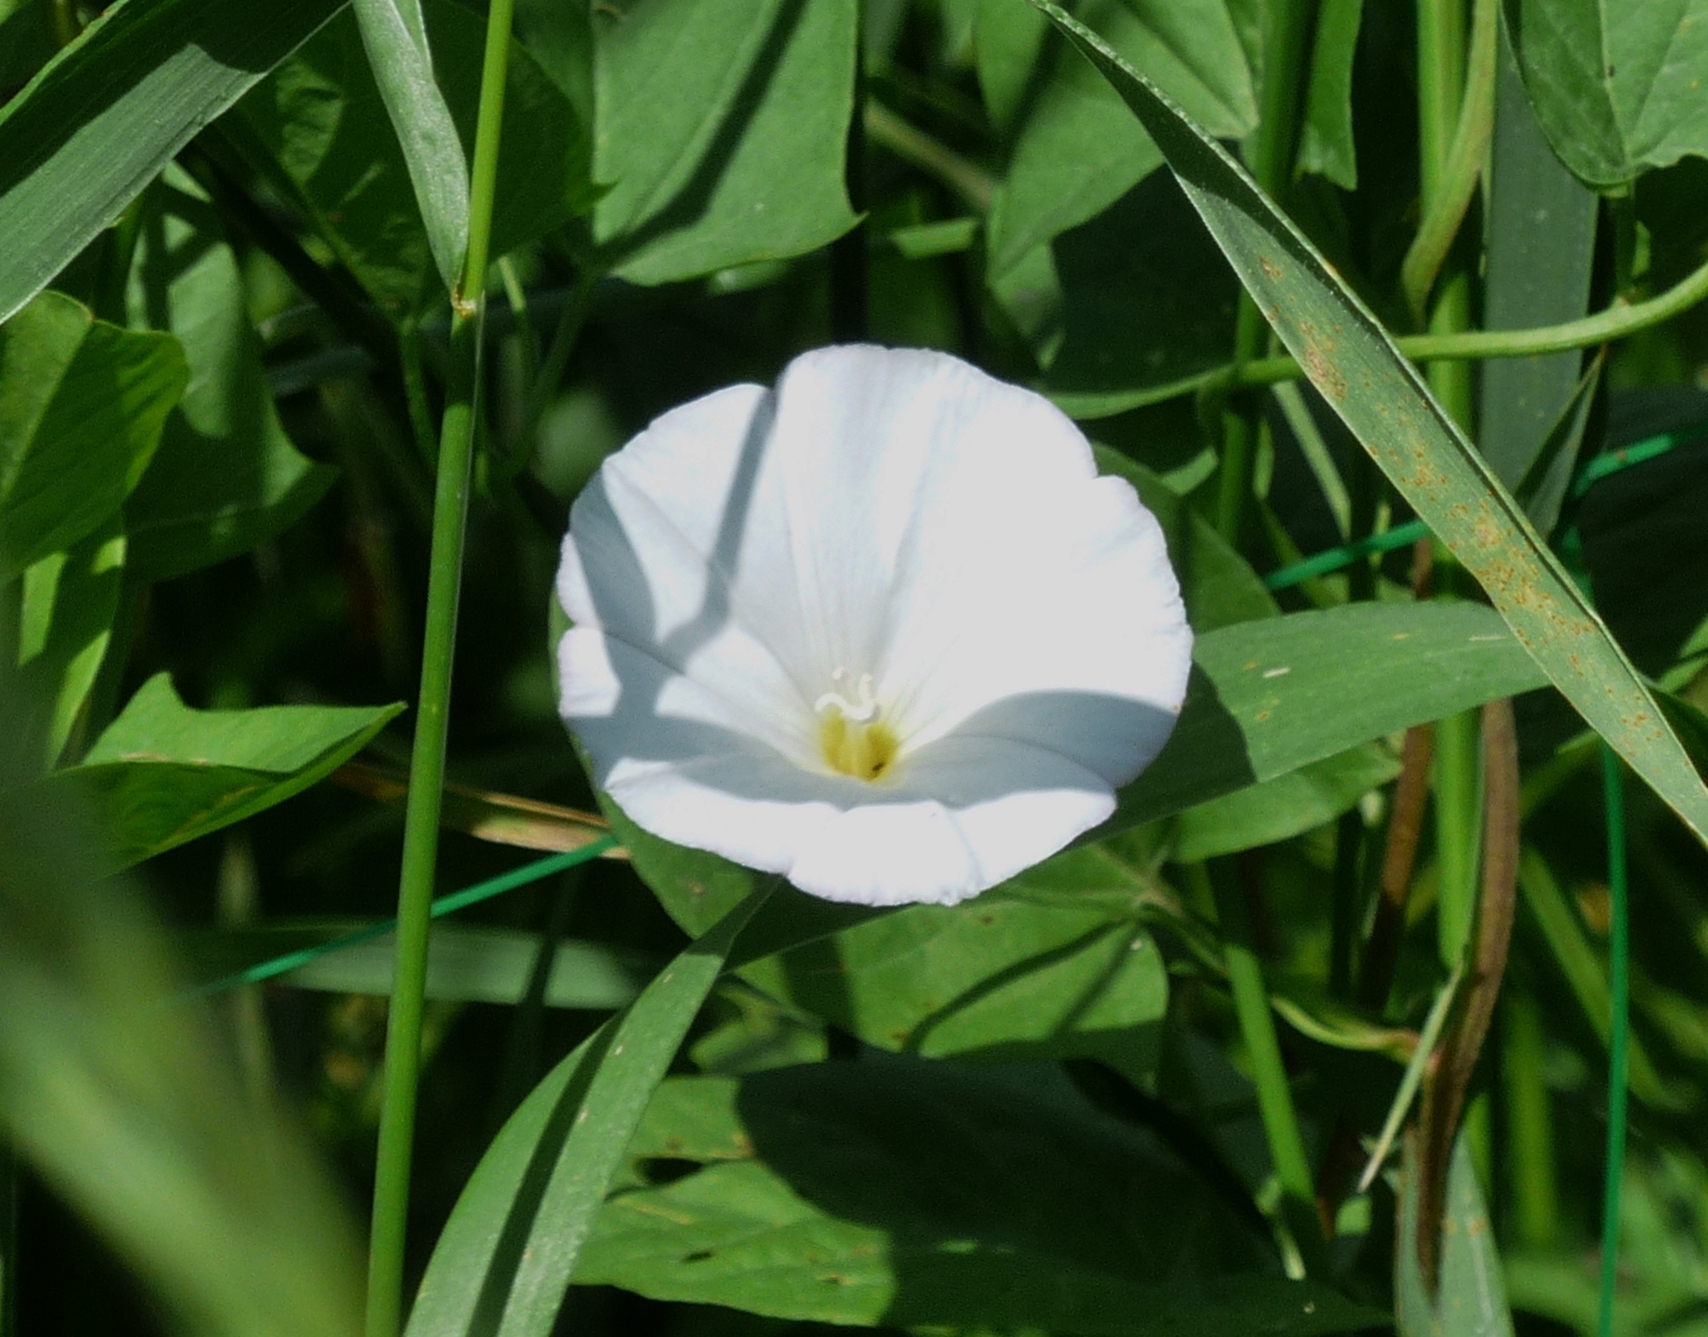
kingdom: Plantae
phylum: Tracheophyta
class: Magnoliopsida
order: Solanales
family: Convolvulaceae
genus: Convolvulus
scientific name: Convolvulus arvensis
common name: Field bindweed
